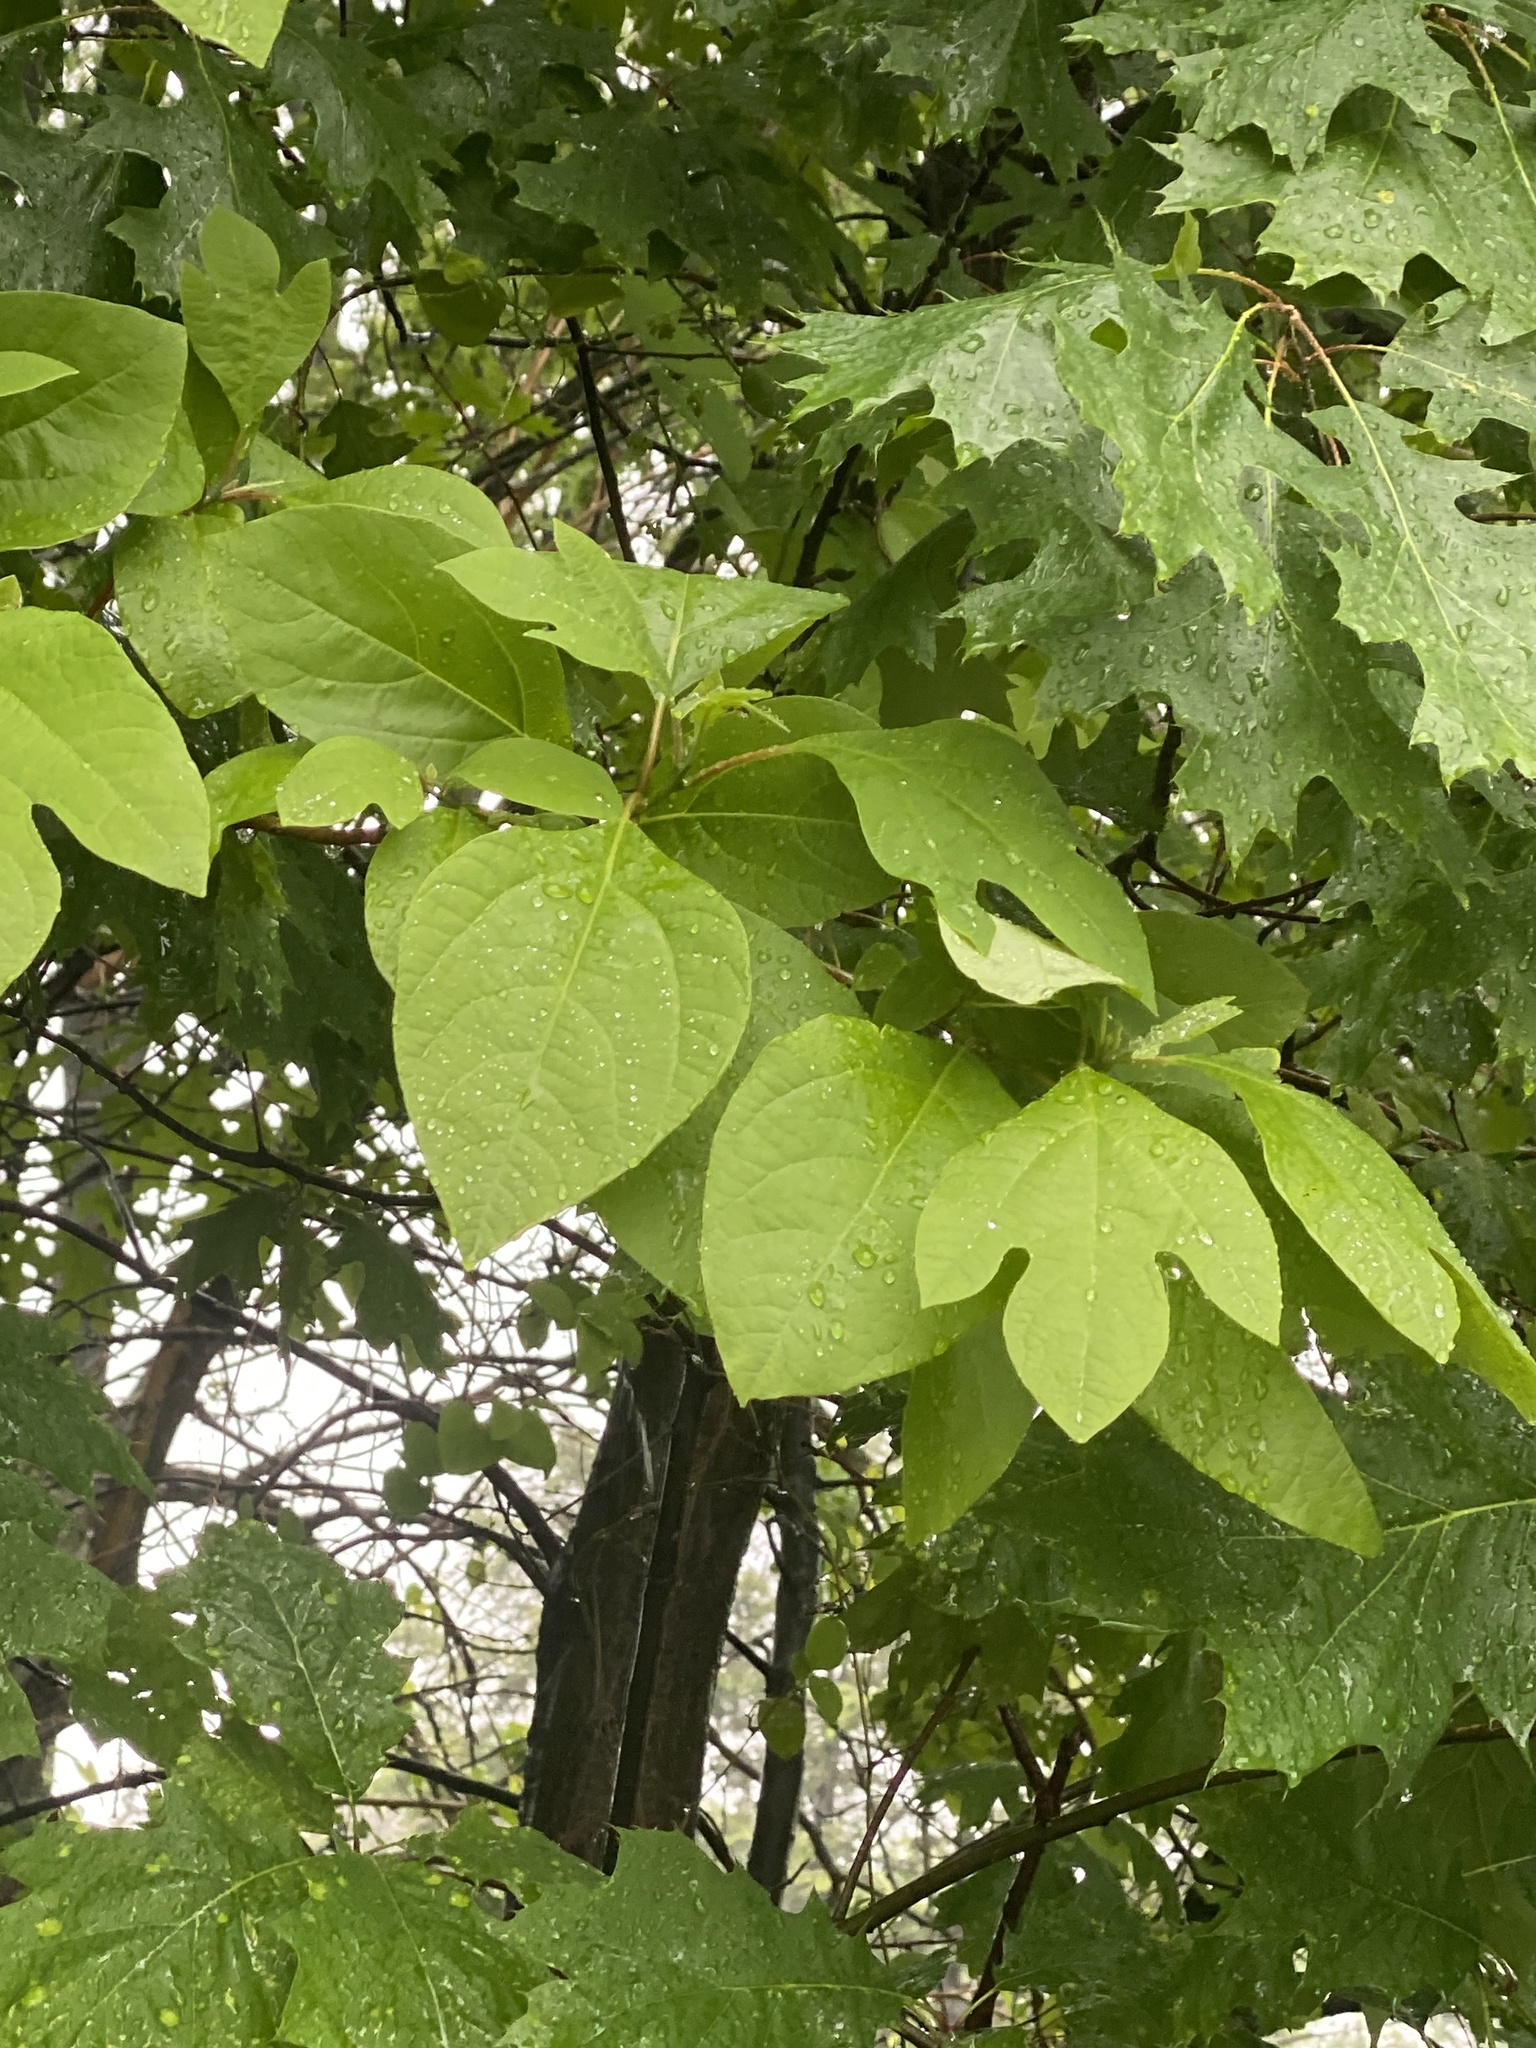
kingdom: Plantae
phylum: Tracheophyta
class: Magnoliopsida
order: Laurales
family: Lauraceae
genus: Sassafras
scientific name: Sassafras albidum
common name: Sassafras
